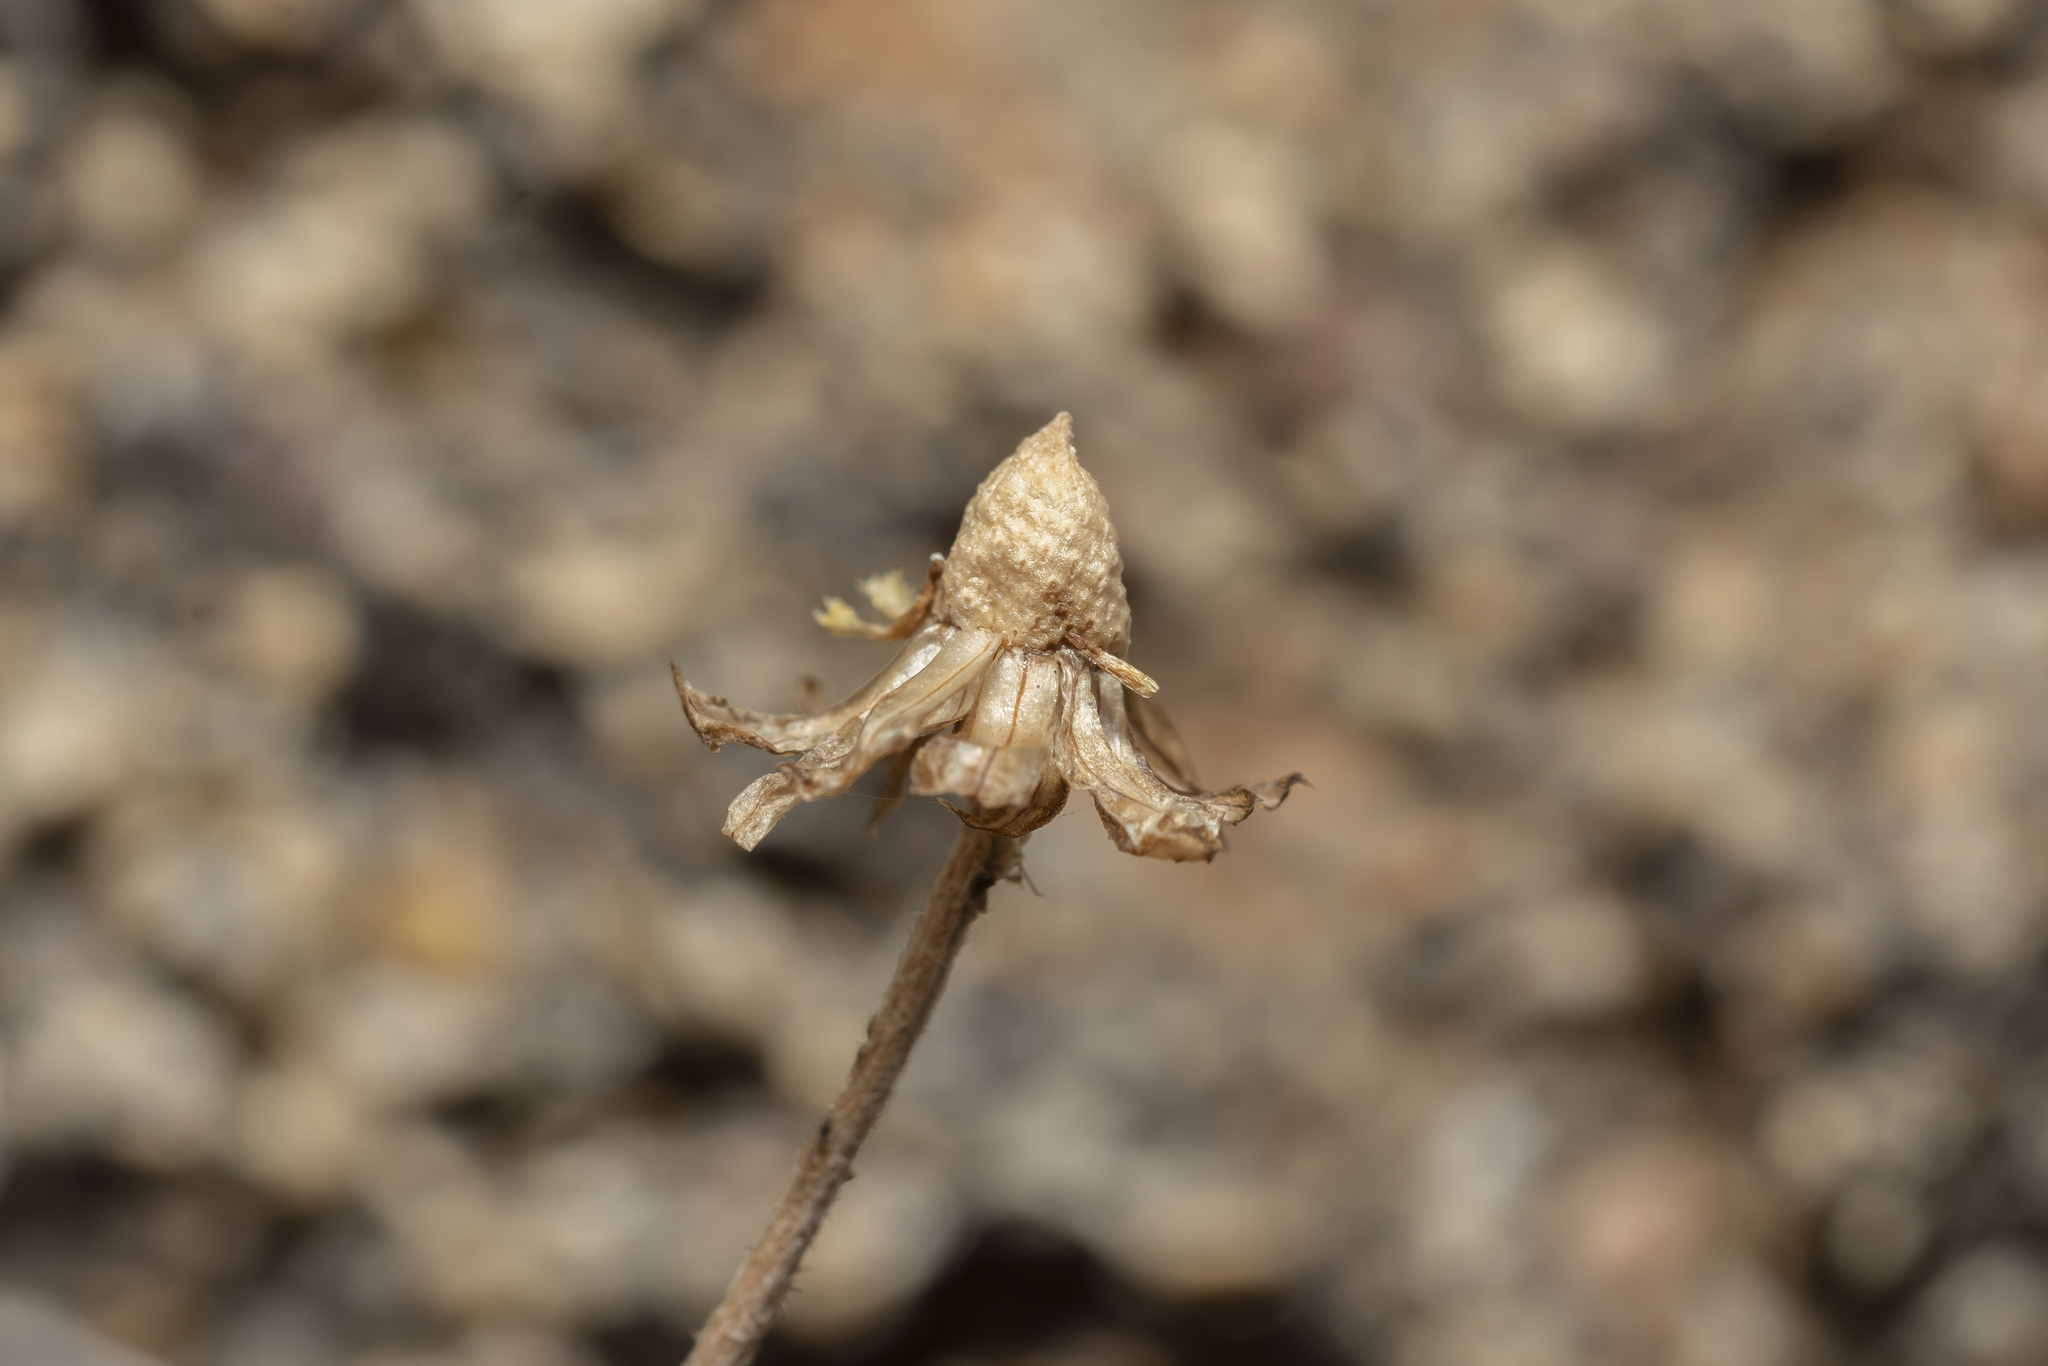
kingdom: Plantae
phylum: Tracheophyta
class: Magnoliopsida
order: Asterales
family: Asteraceae
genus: Anthemis
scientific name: Anthemis chia
